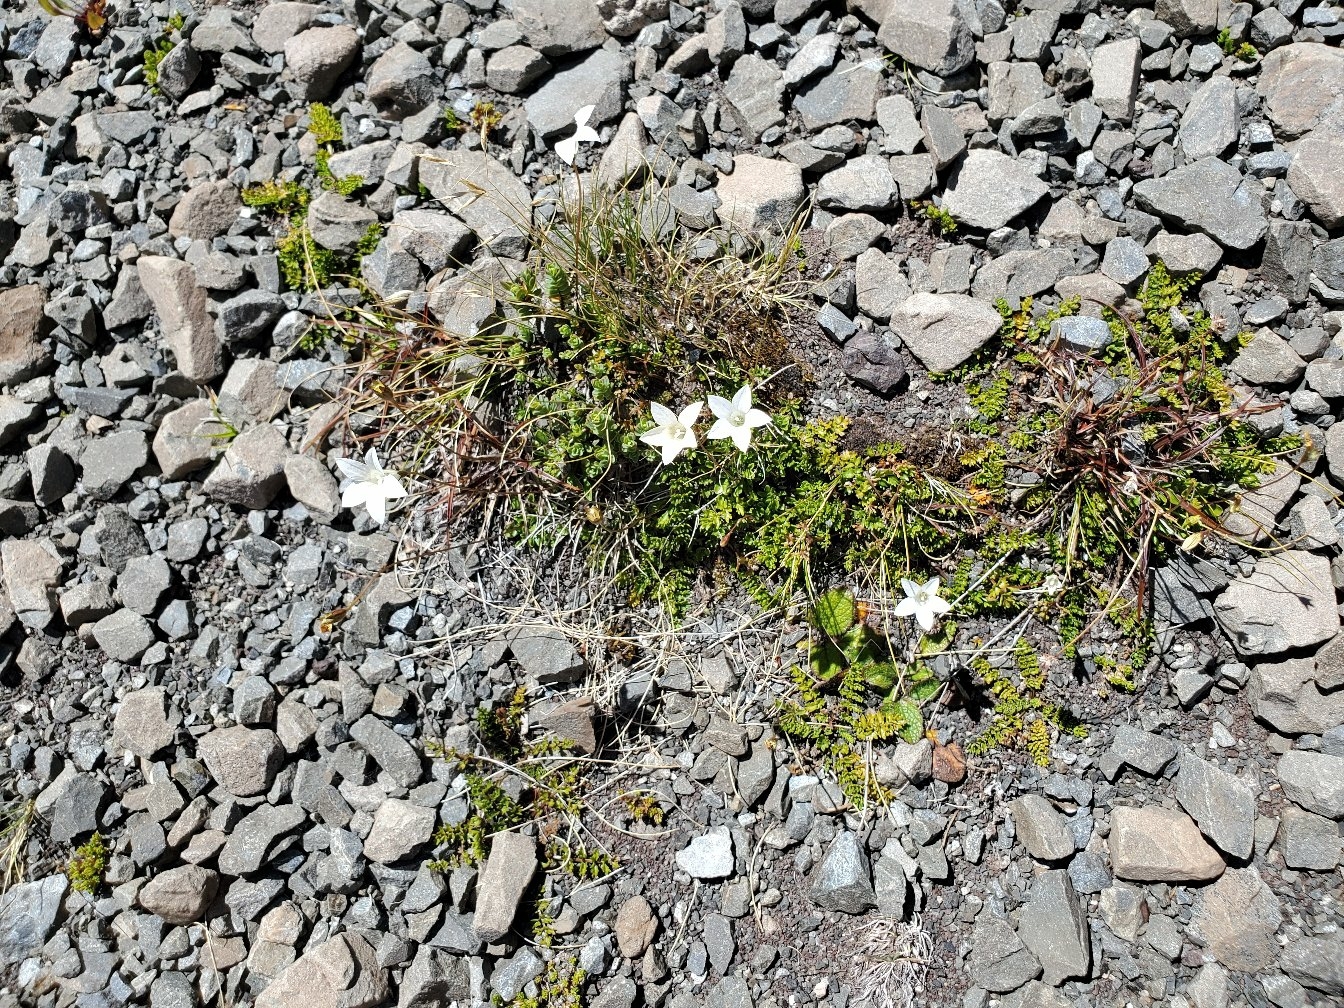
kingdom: Plantae
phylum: Tracheophyta
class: Magnoliopsida
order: Asterales
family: Campanulaceae
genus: Wahlenbergia
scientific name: Wahlenbergia albomarginata
